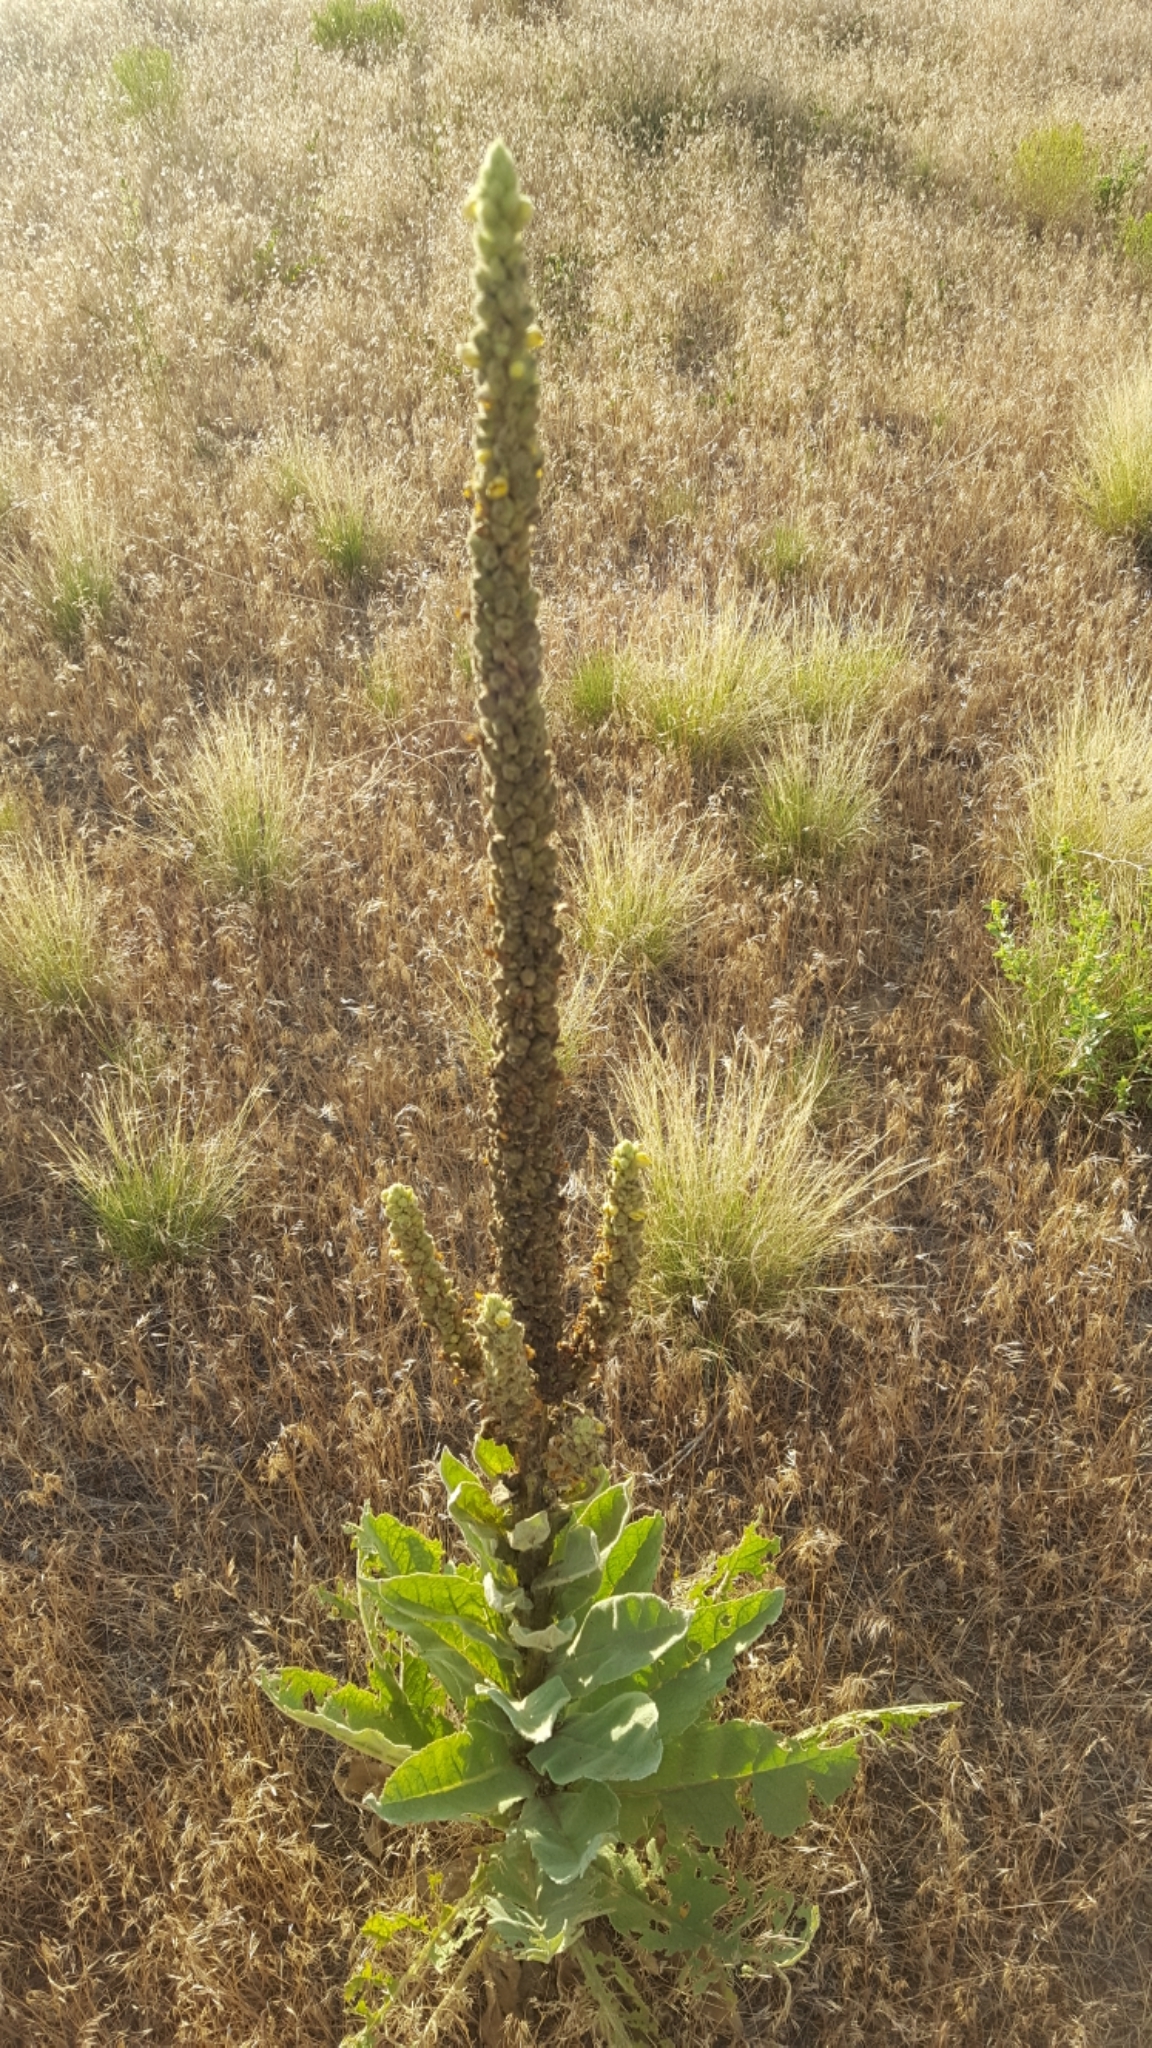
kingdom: Plantae
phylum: Tracheophyta
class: Magnoliopsida
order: Lamiales
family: Scrophulariaceae
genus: Verbascum
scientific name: Verbascum thapsus
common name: Common mullein
